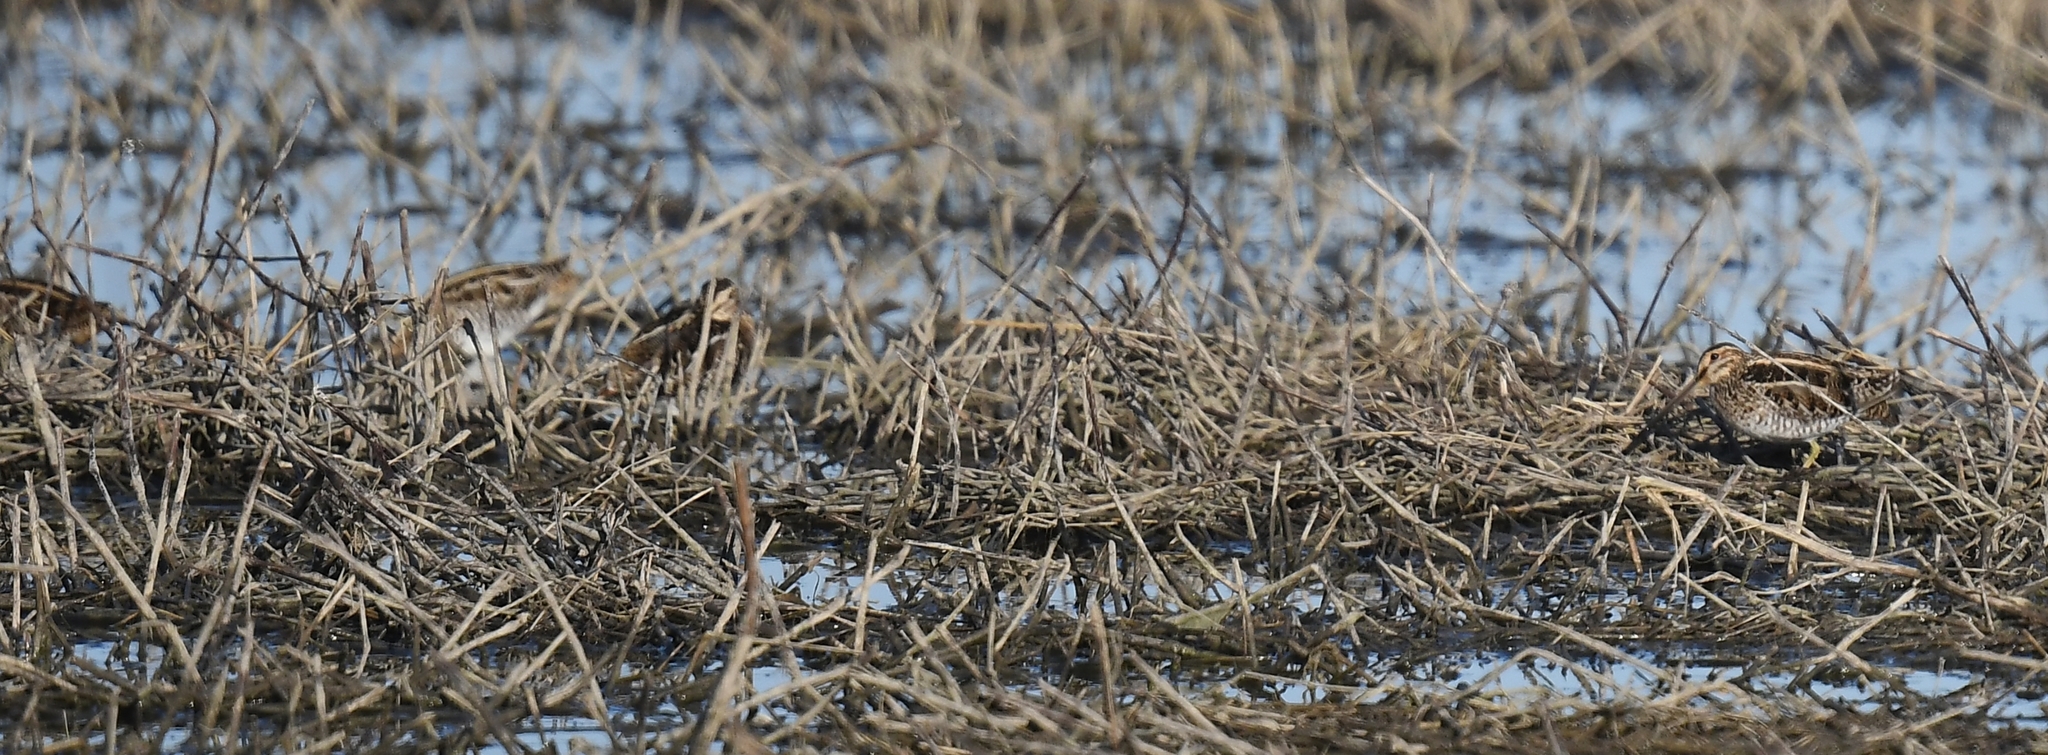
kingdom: Animalia
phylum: Chordata
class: Aves
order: Charadriiformes
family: Scolopacidae
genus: Gallinago
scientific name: Gallinago delicata
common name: Wilson's snipe
